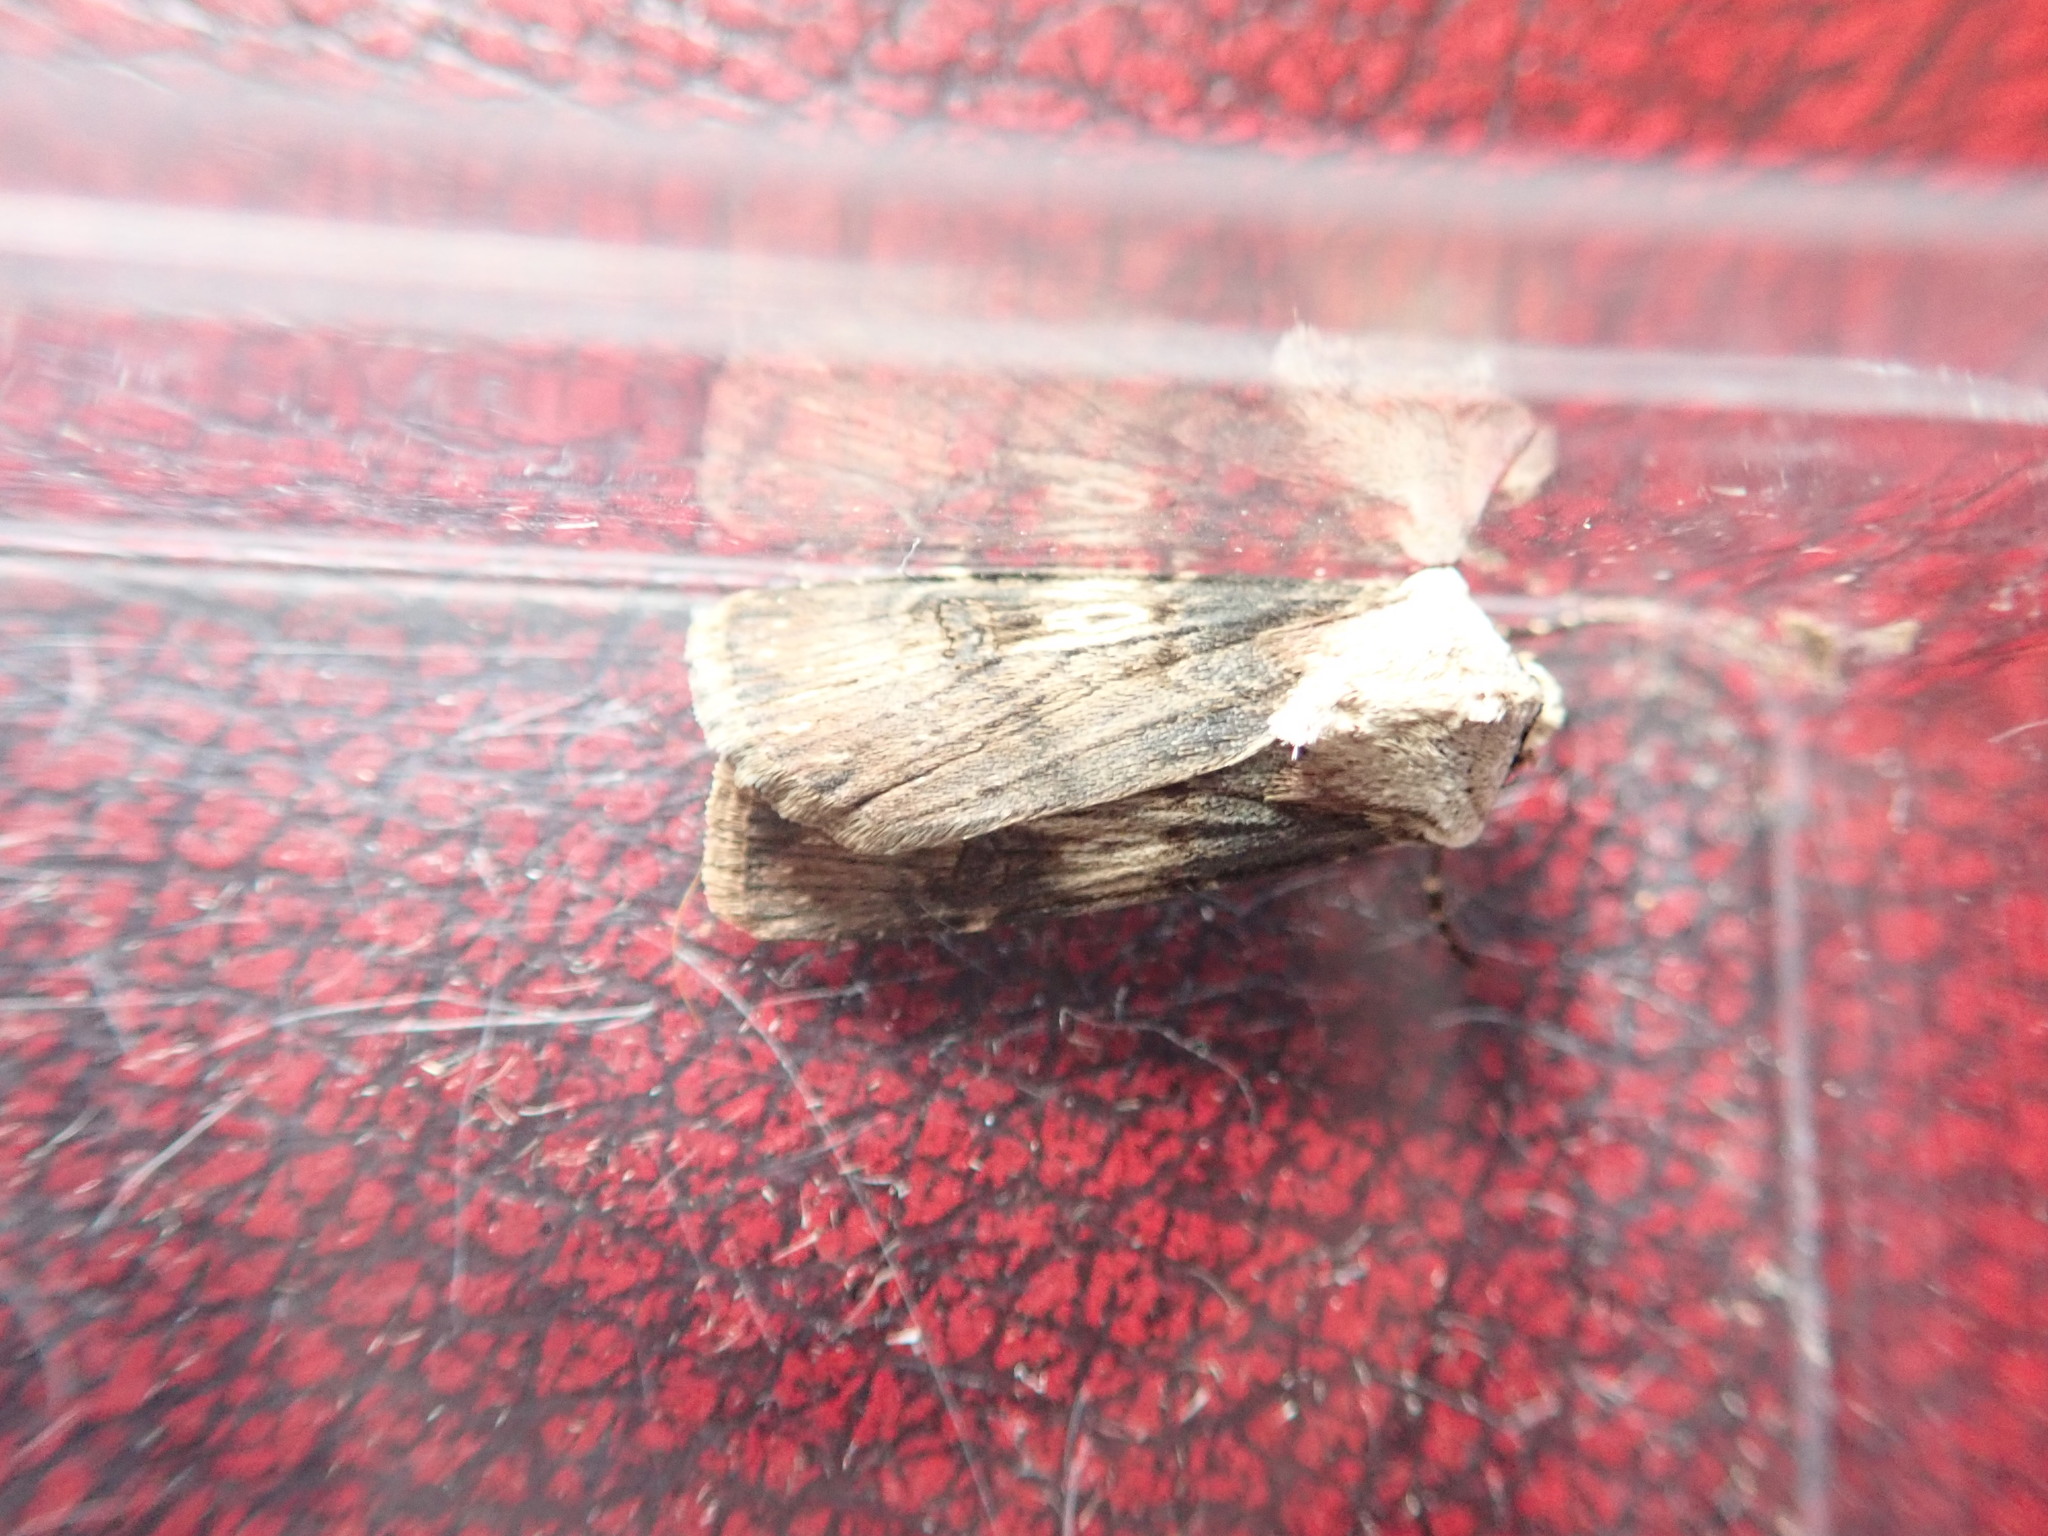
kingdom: Animalia
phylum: Arthropoda
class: Insecta
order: Lepidoptera
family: Noctuidae
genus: Agrotis
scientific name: Agrotis puta
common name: Shuttle-shaped dart
